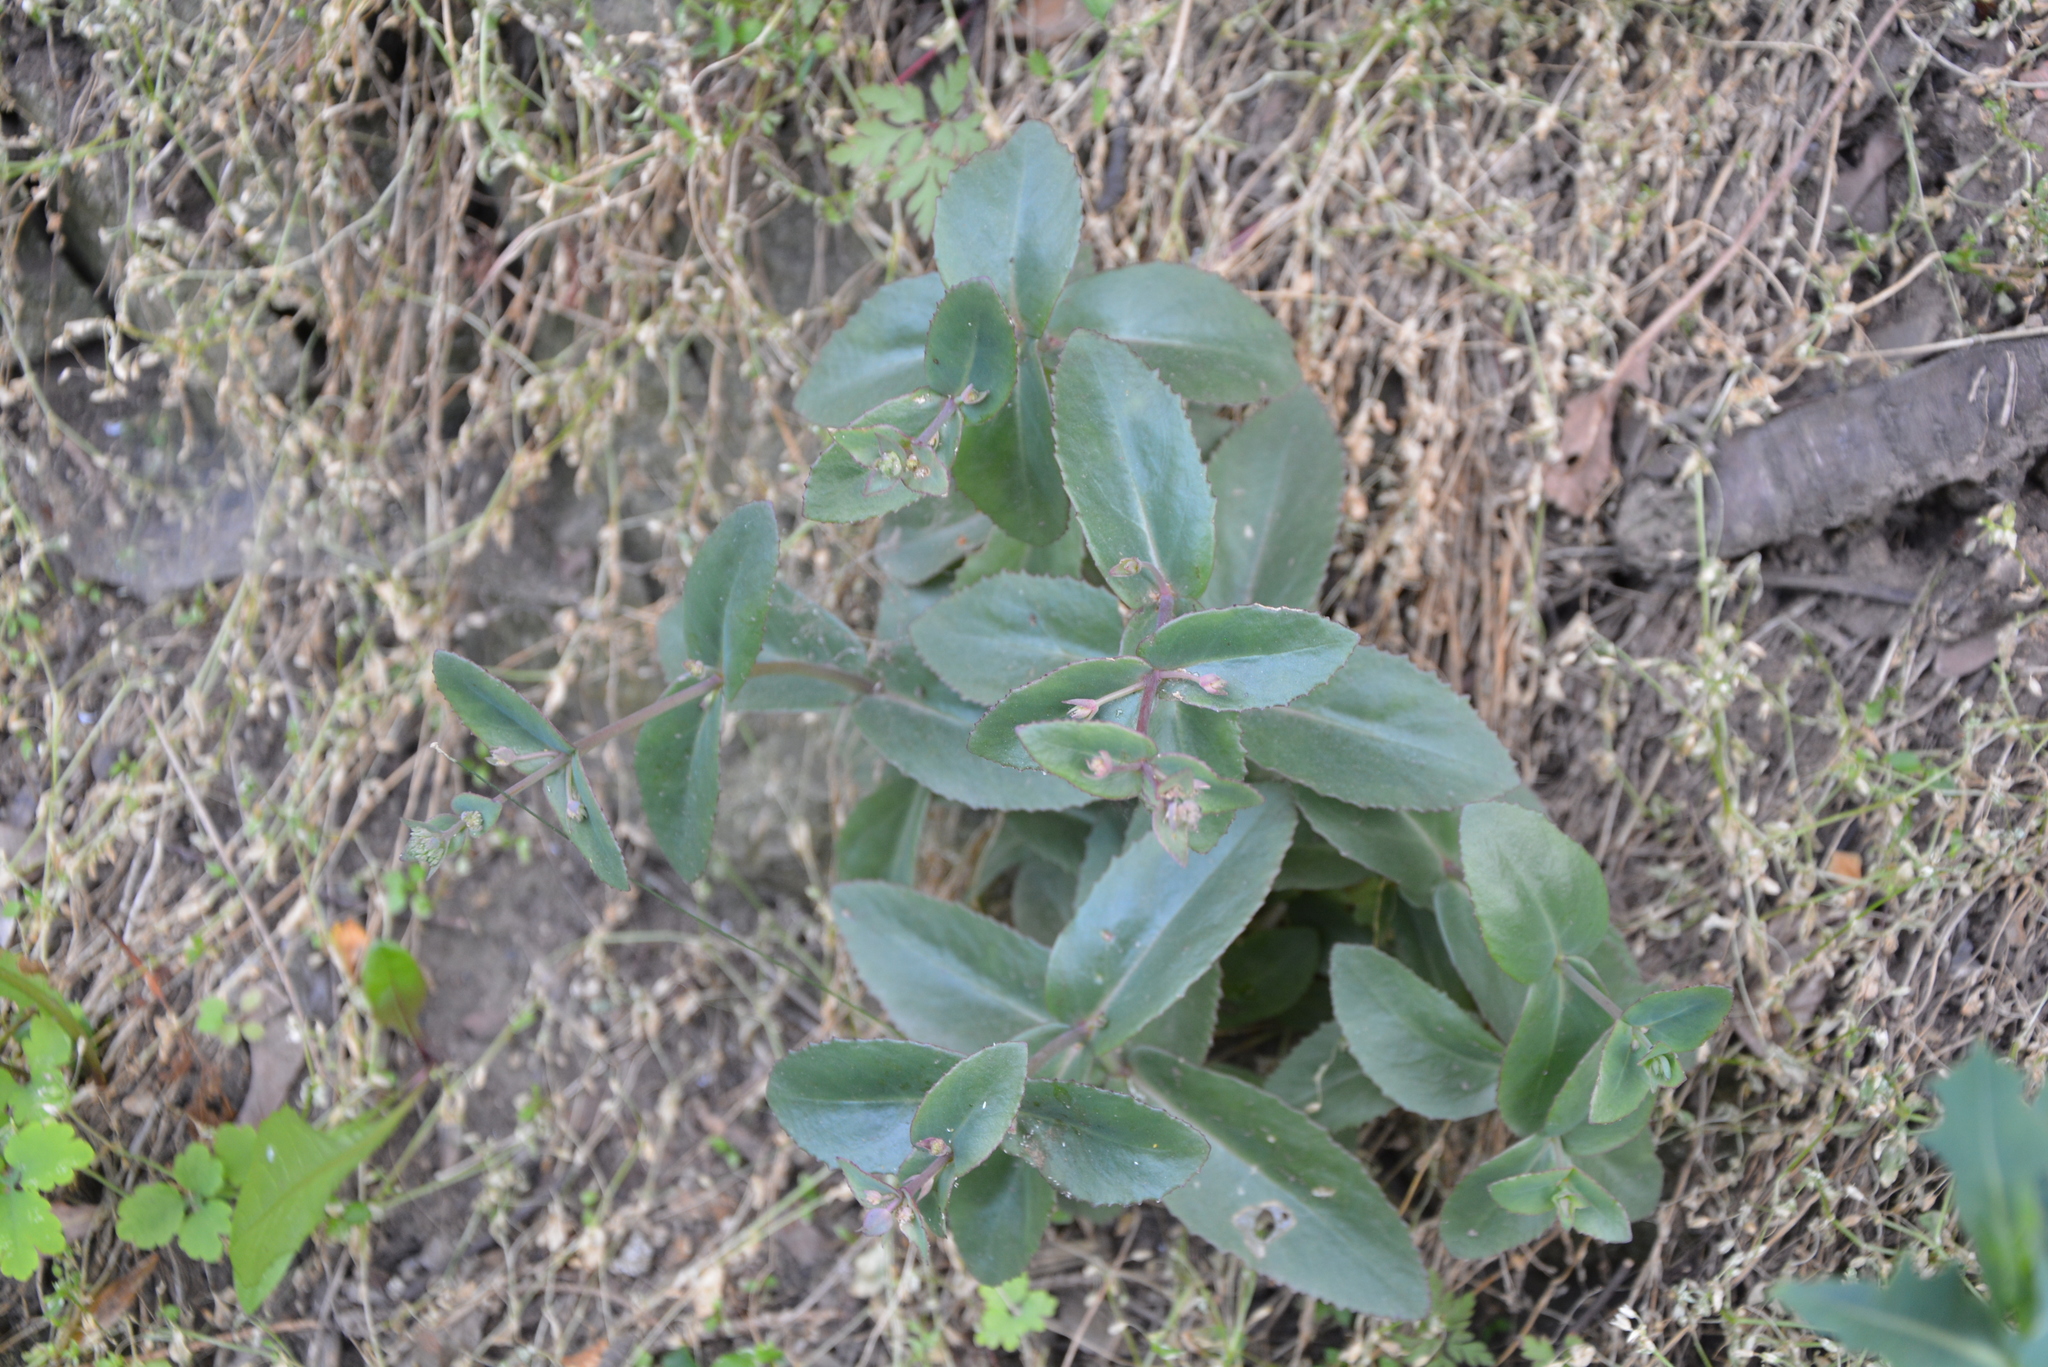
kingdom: Plantae
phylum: Tracheophyta
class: Magnoliopsida
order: Saxifragales
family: Crassulaceae
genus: Hylotelephium
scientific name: Hylotelephium maximum
